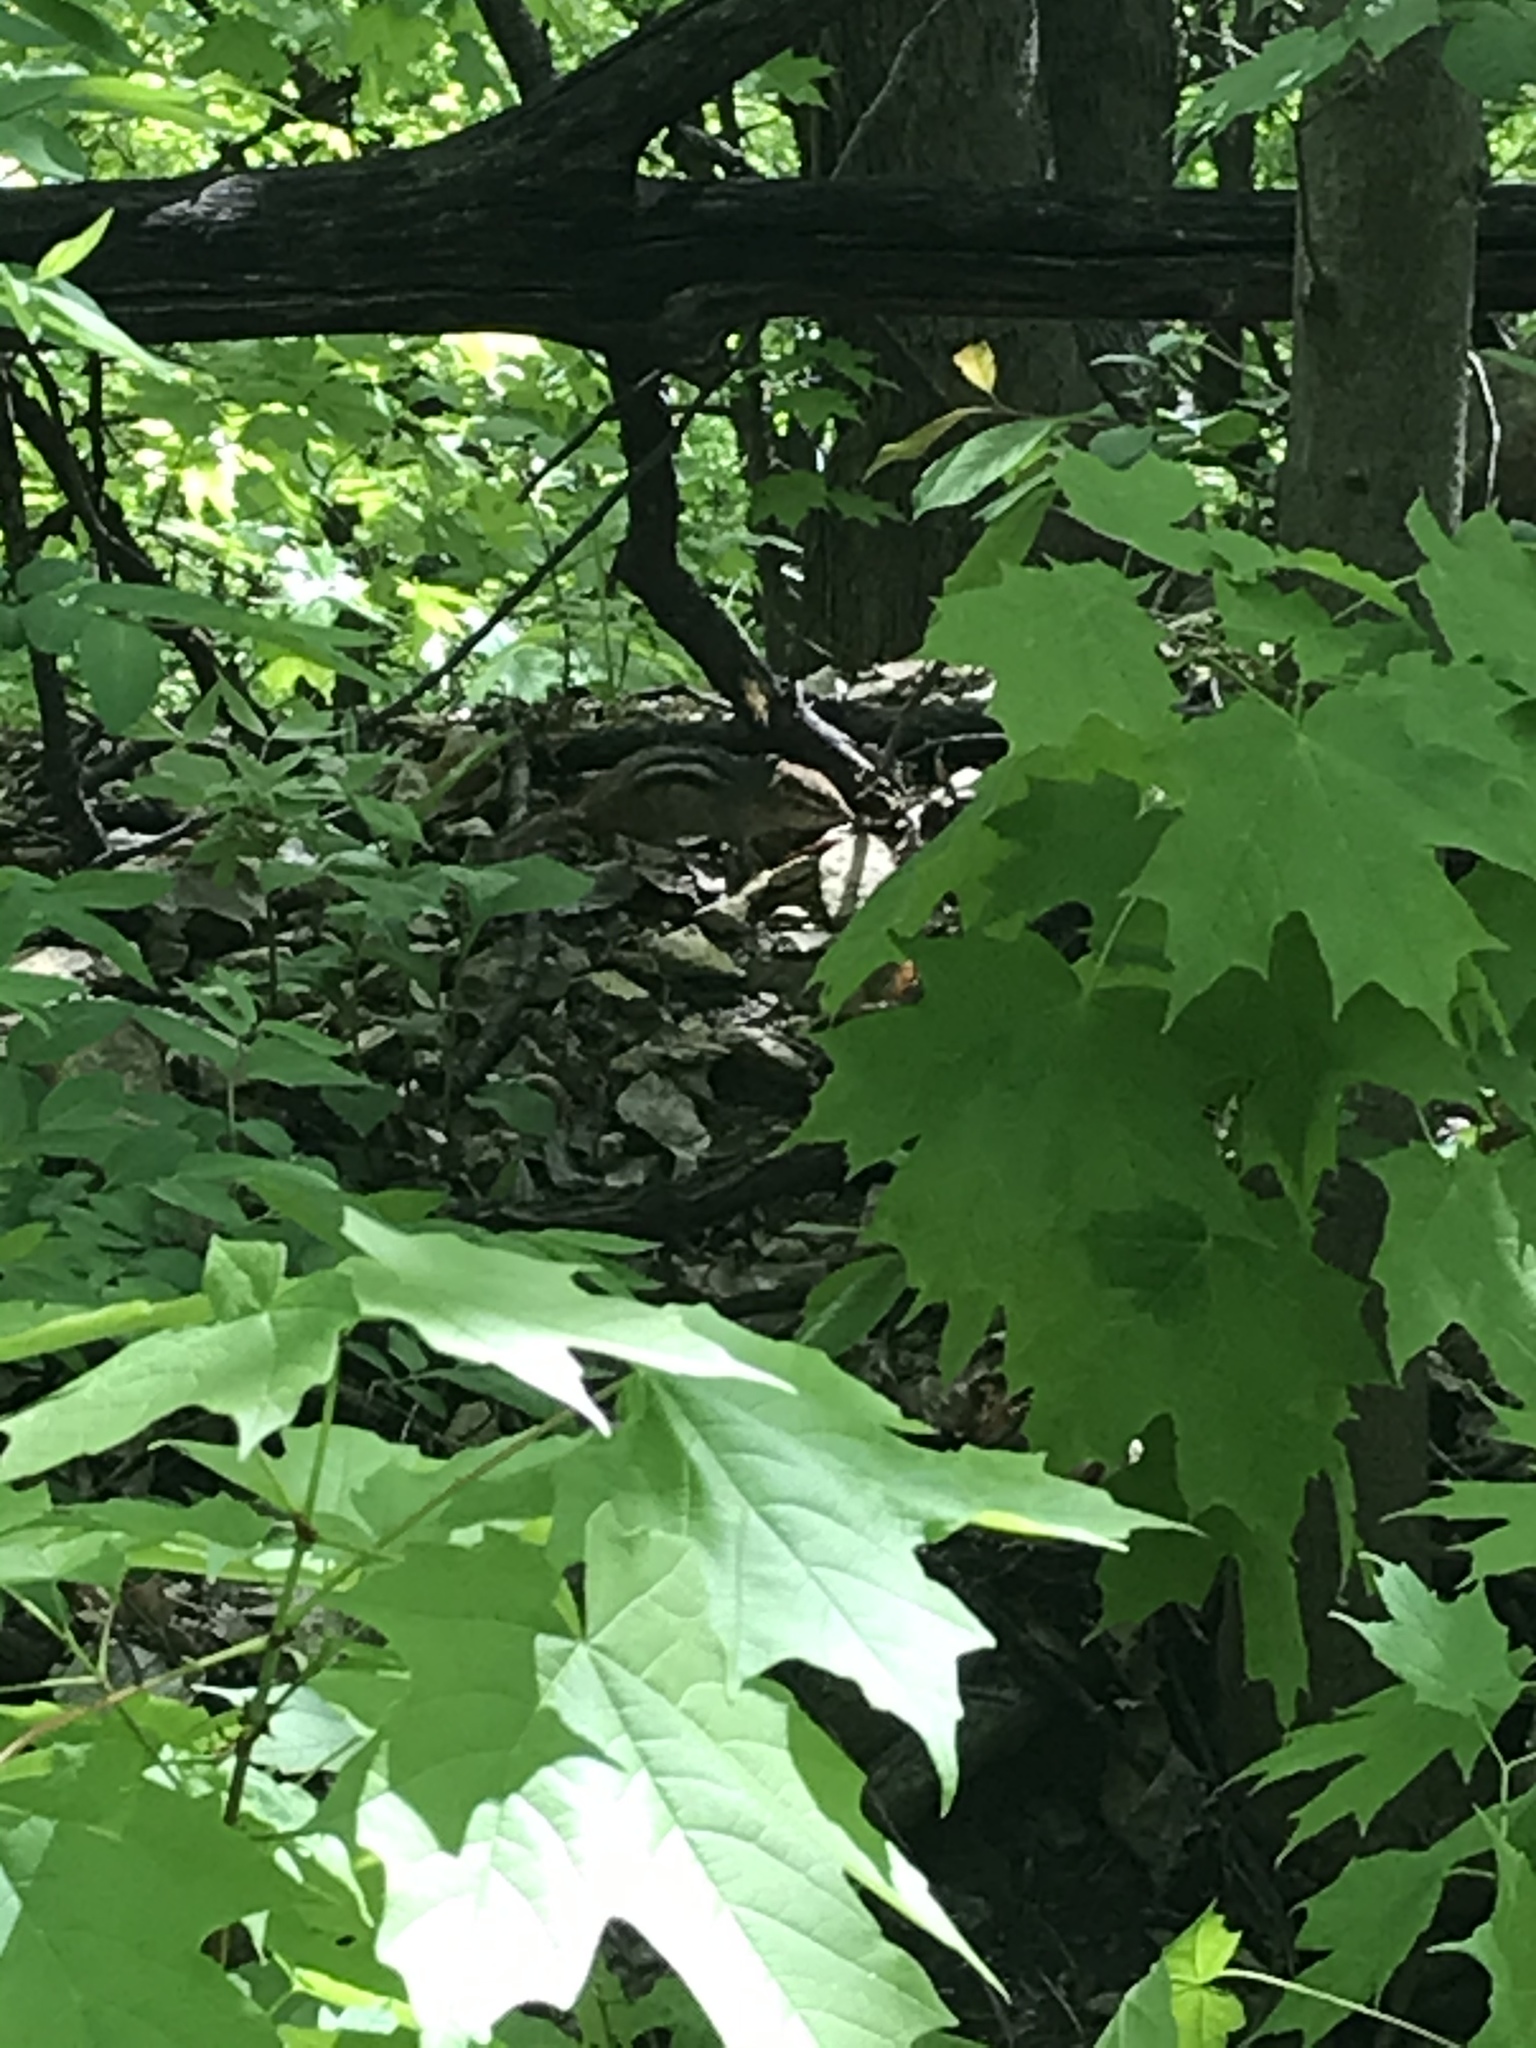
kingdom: Animalia
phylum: Chordata
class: Mammalia
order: Rodentia
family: Sciuridae
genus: Tamias
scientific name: Tamias striatus
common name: Eastern chipmunk
